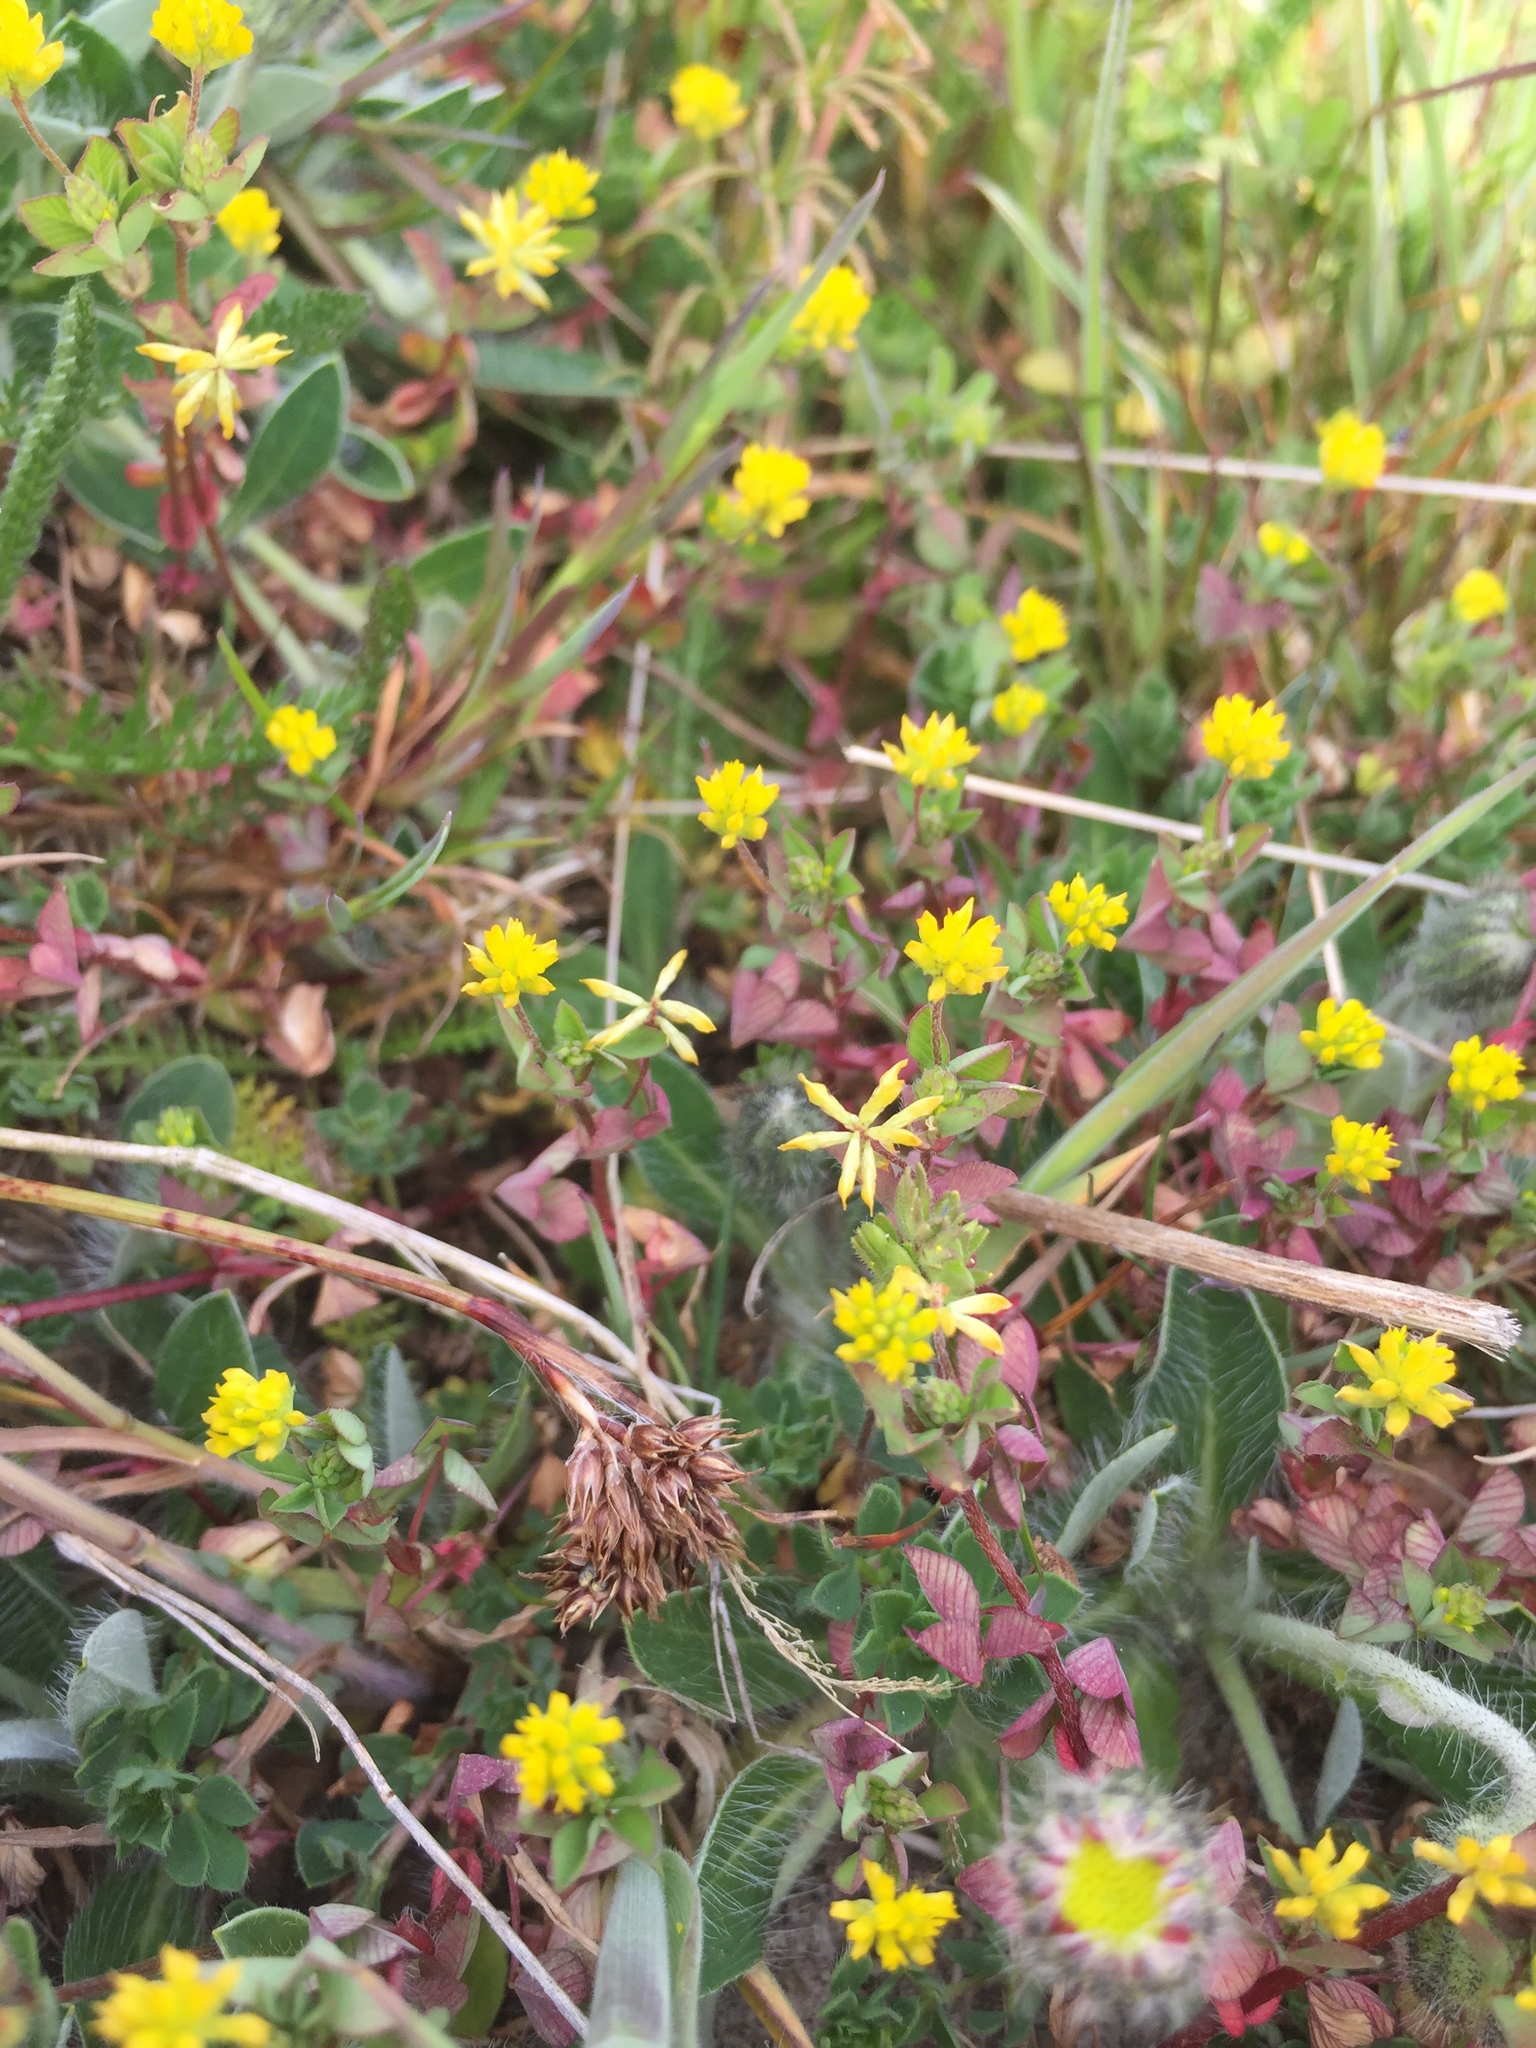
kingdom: Plantae
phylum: Tracheophyta
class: Magnoliopsida
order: Fabales
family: Fabaceae
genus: Trifolium
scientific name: Trifolium dubium
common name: Suckling clover
